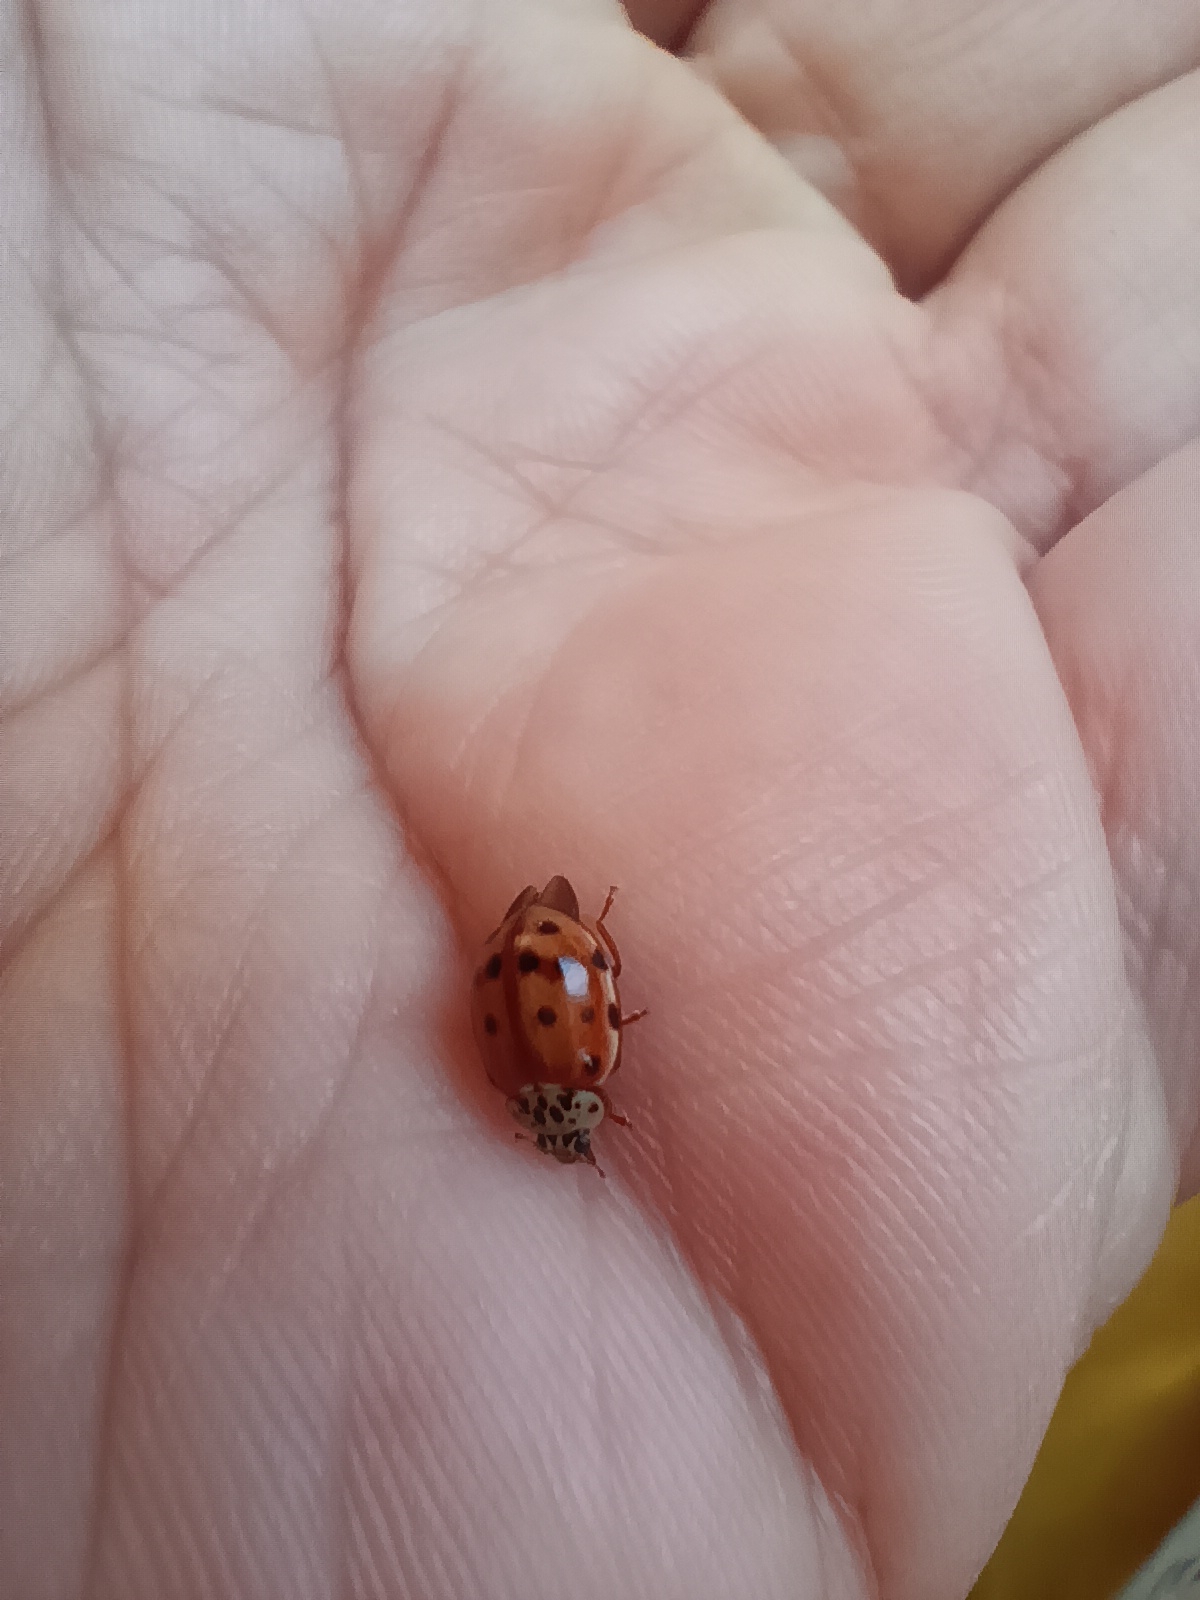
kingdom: Animalia
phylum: Arthropoda
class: Insecta
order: Coleoptera
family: Coccinellidae
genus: Harmonia
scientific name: Harmonia quadripunctata
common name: Cream-streaked ladybird
